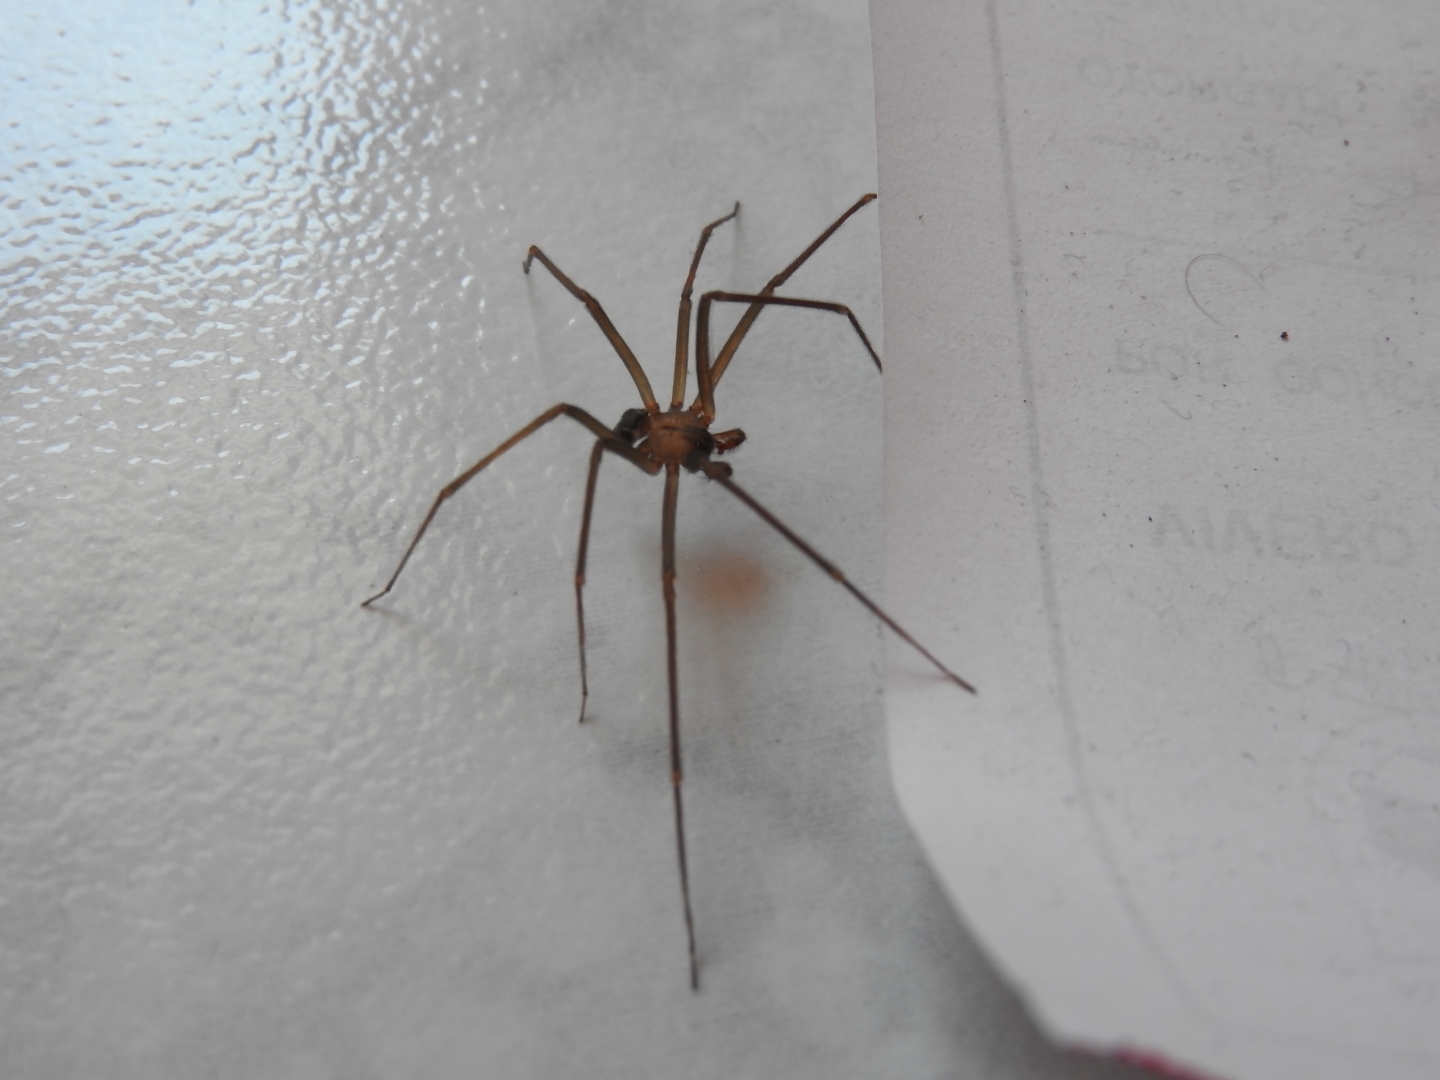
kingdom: Animalia
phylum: Arthropoda
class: Arachnida
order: Araneae
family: Sicariidae
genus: Loxosceles
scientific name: Loxosceles
